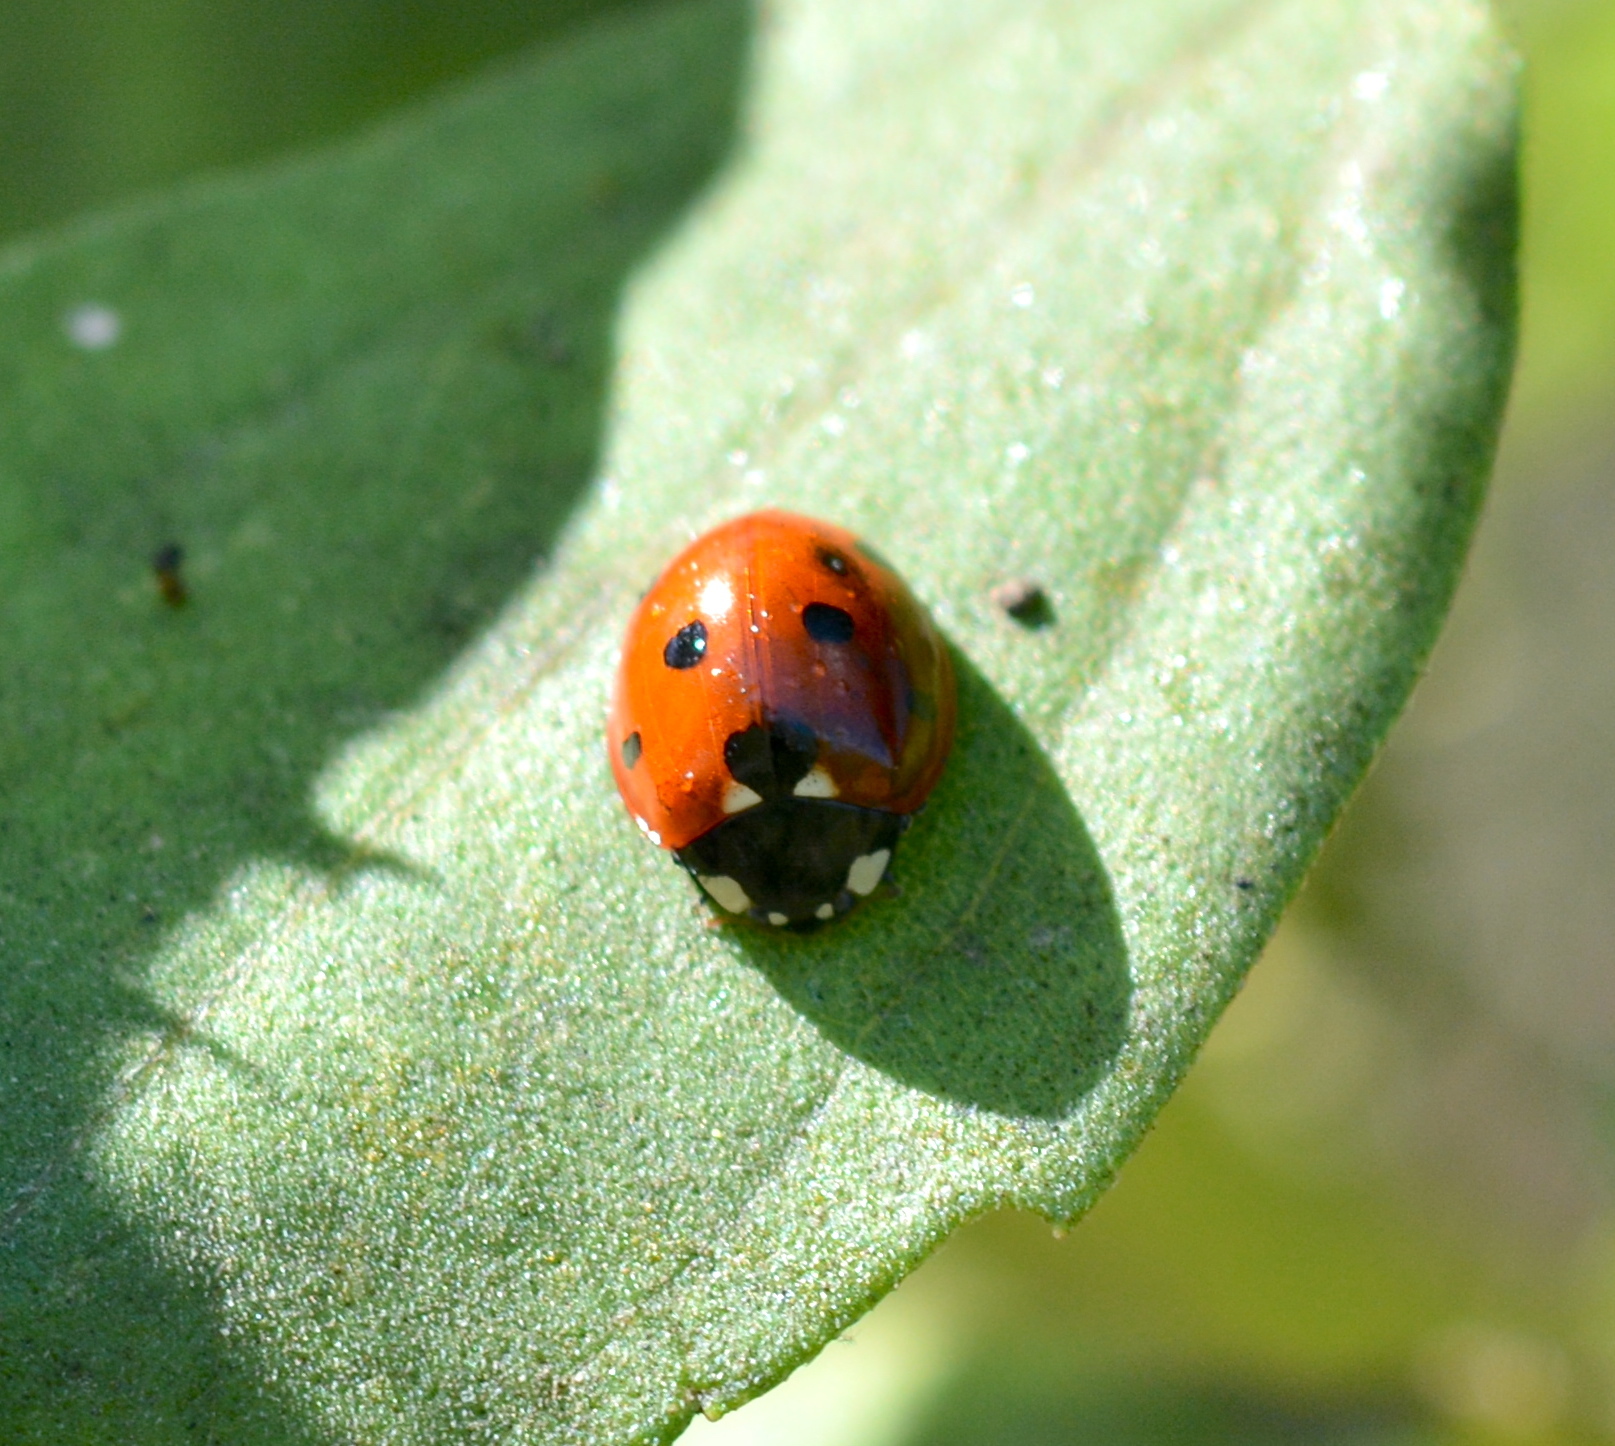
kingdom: Animalia
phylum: Arthropoda
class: Insecta
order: Coleoptera
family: Coccinellidae
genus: Coccinella
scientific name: Coccinella septempunctata
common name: Sevenspotted lady beetle
